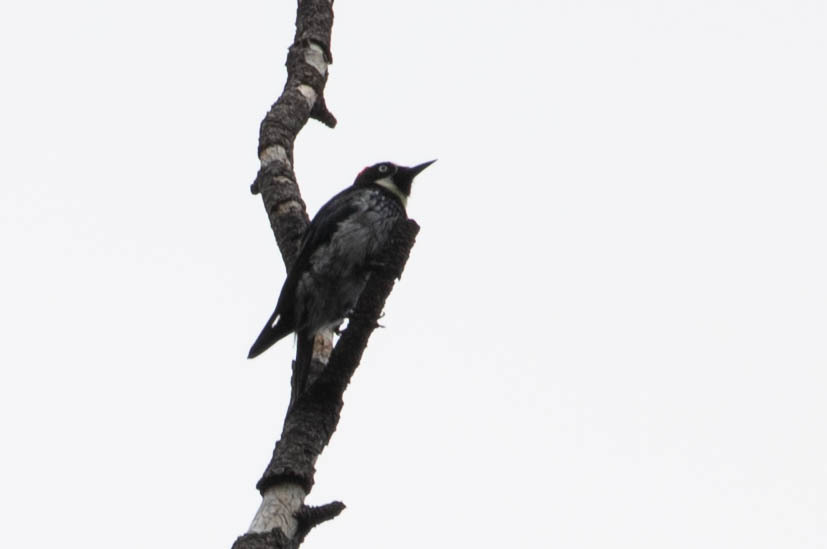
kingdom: Animalia
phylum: Chordata
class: Aves
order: Piciformes
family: Picidae
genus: Melanerpes
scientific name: Melanerpes formicivorus
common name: Acorn woodpecker
